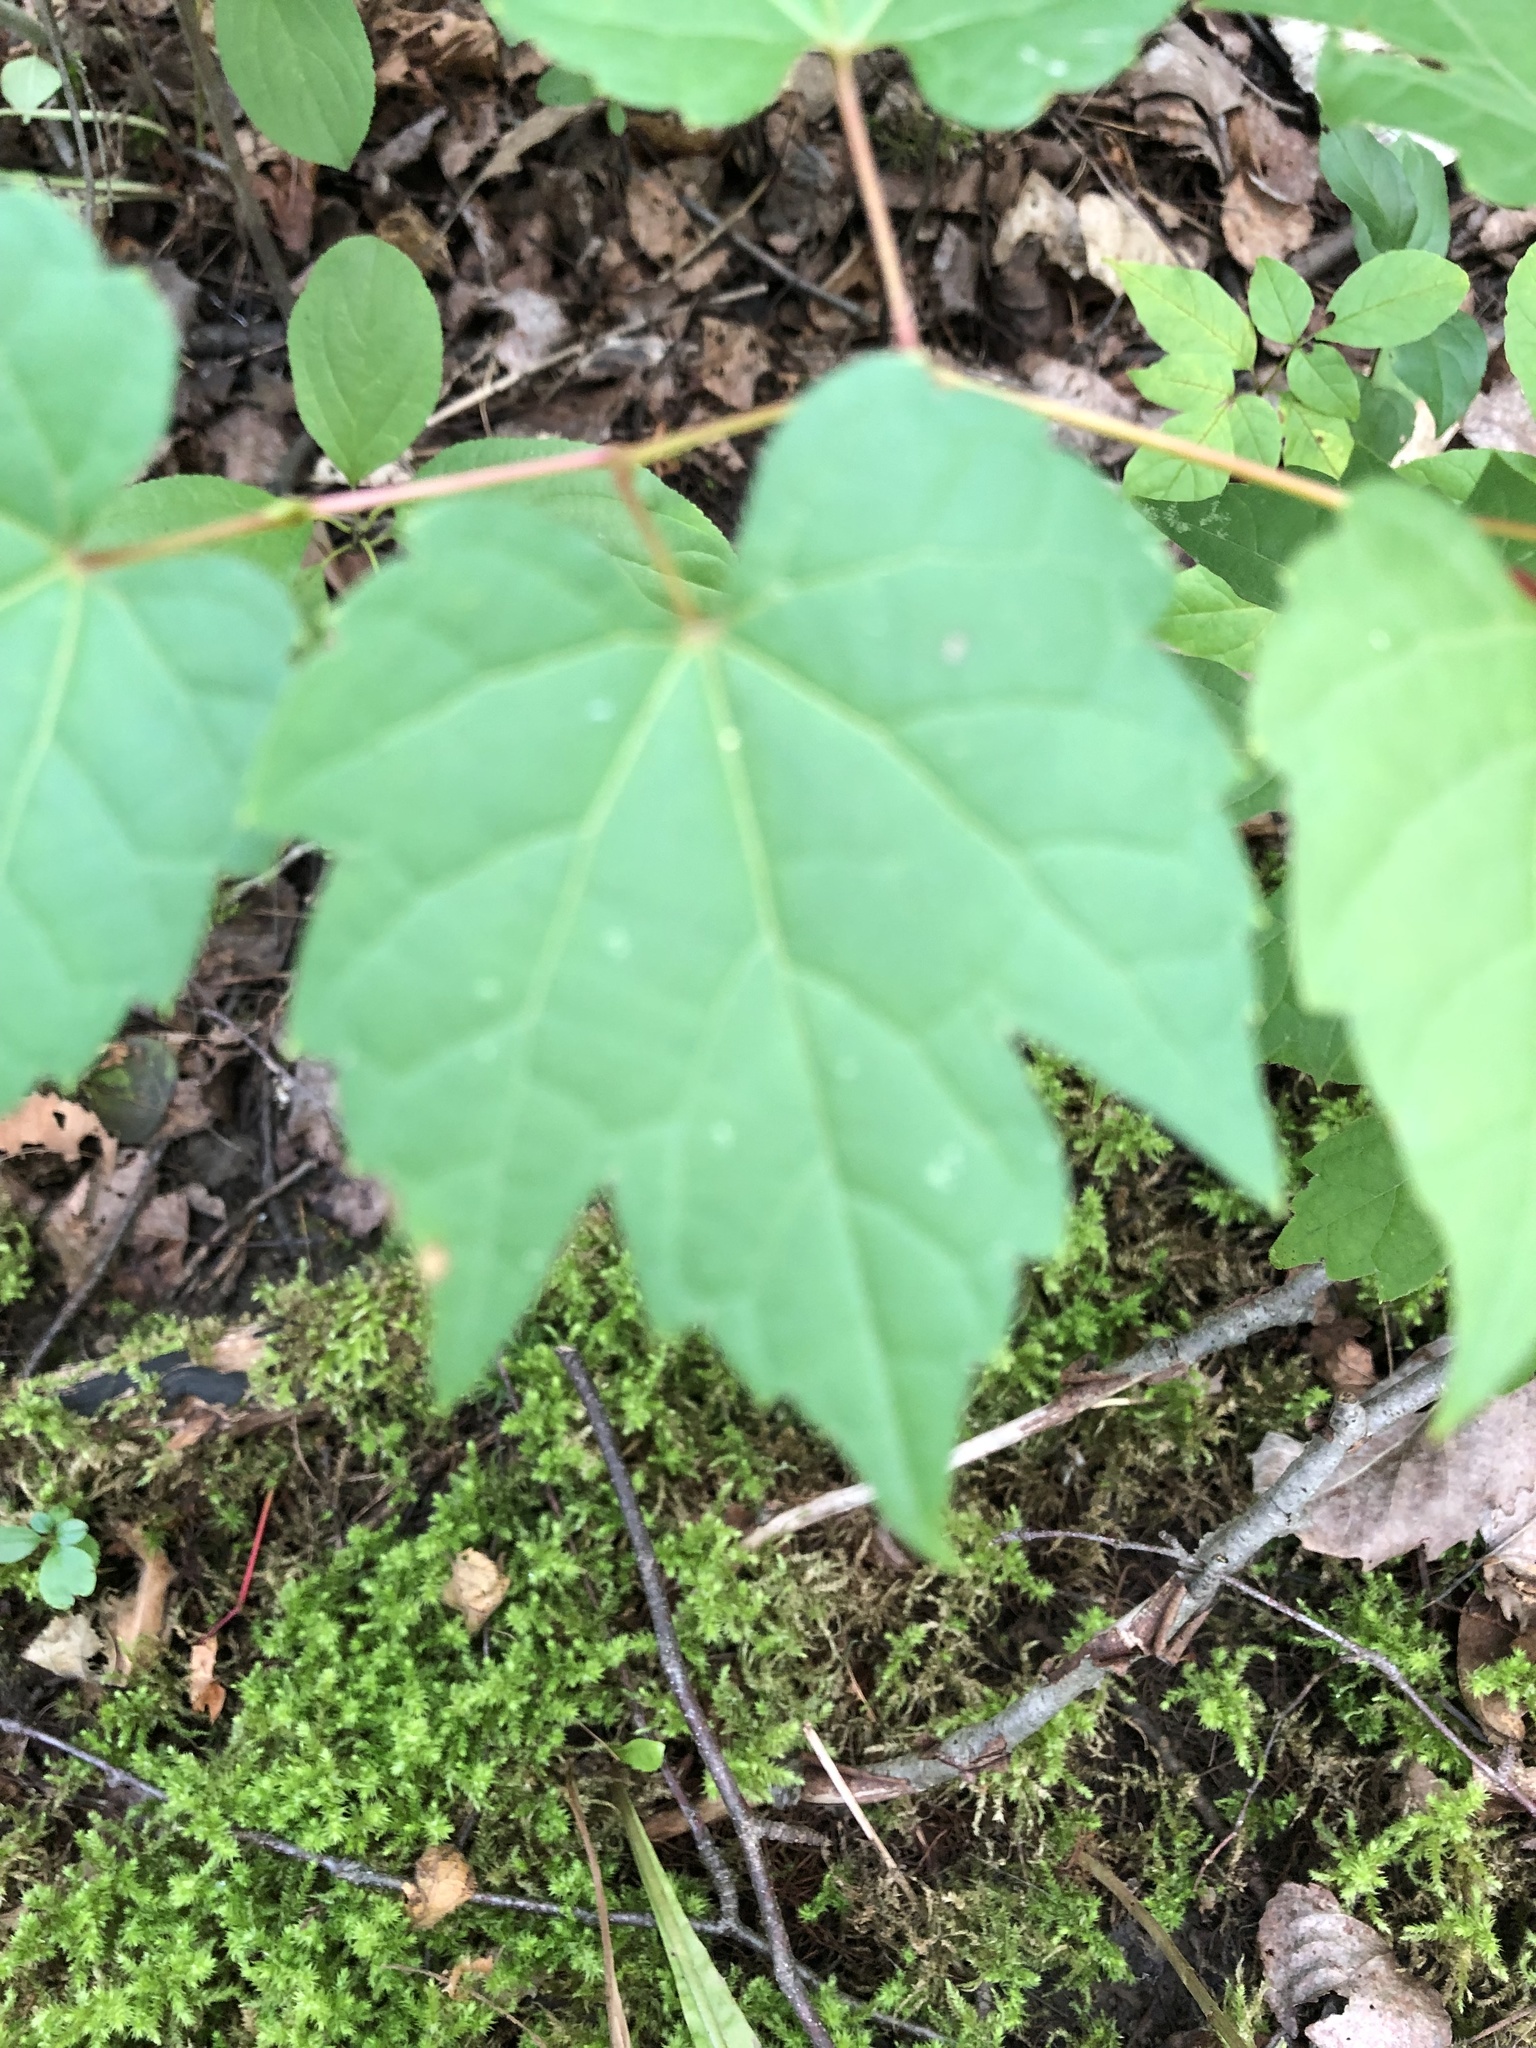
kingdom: Plantae
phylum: Tracheophyta
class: Magnoliopsida
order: Vitales
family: Vitaceae
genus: Vitis
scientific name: Vitis riparia
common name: Frost grape
